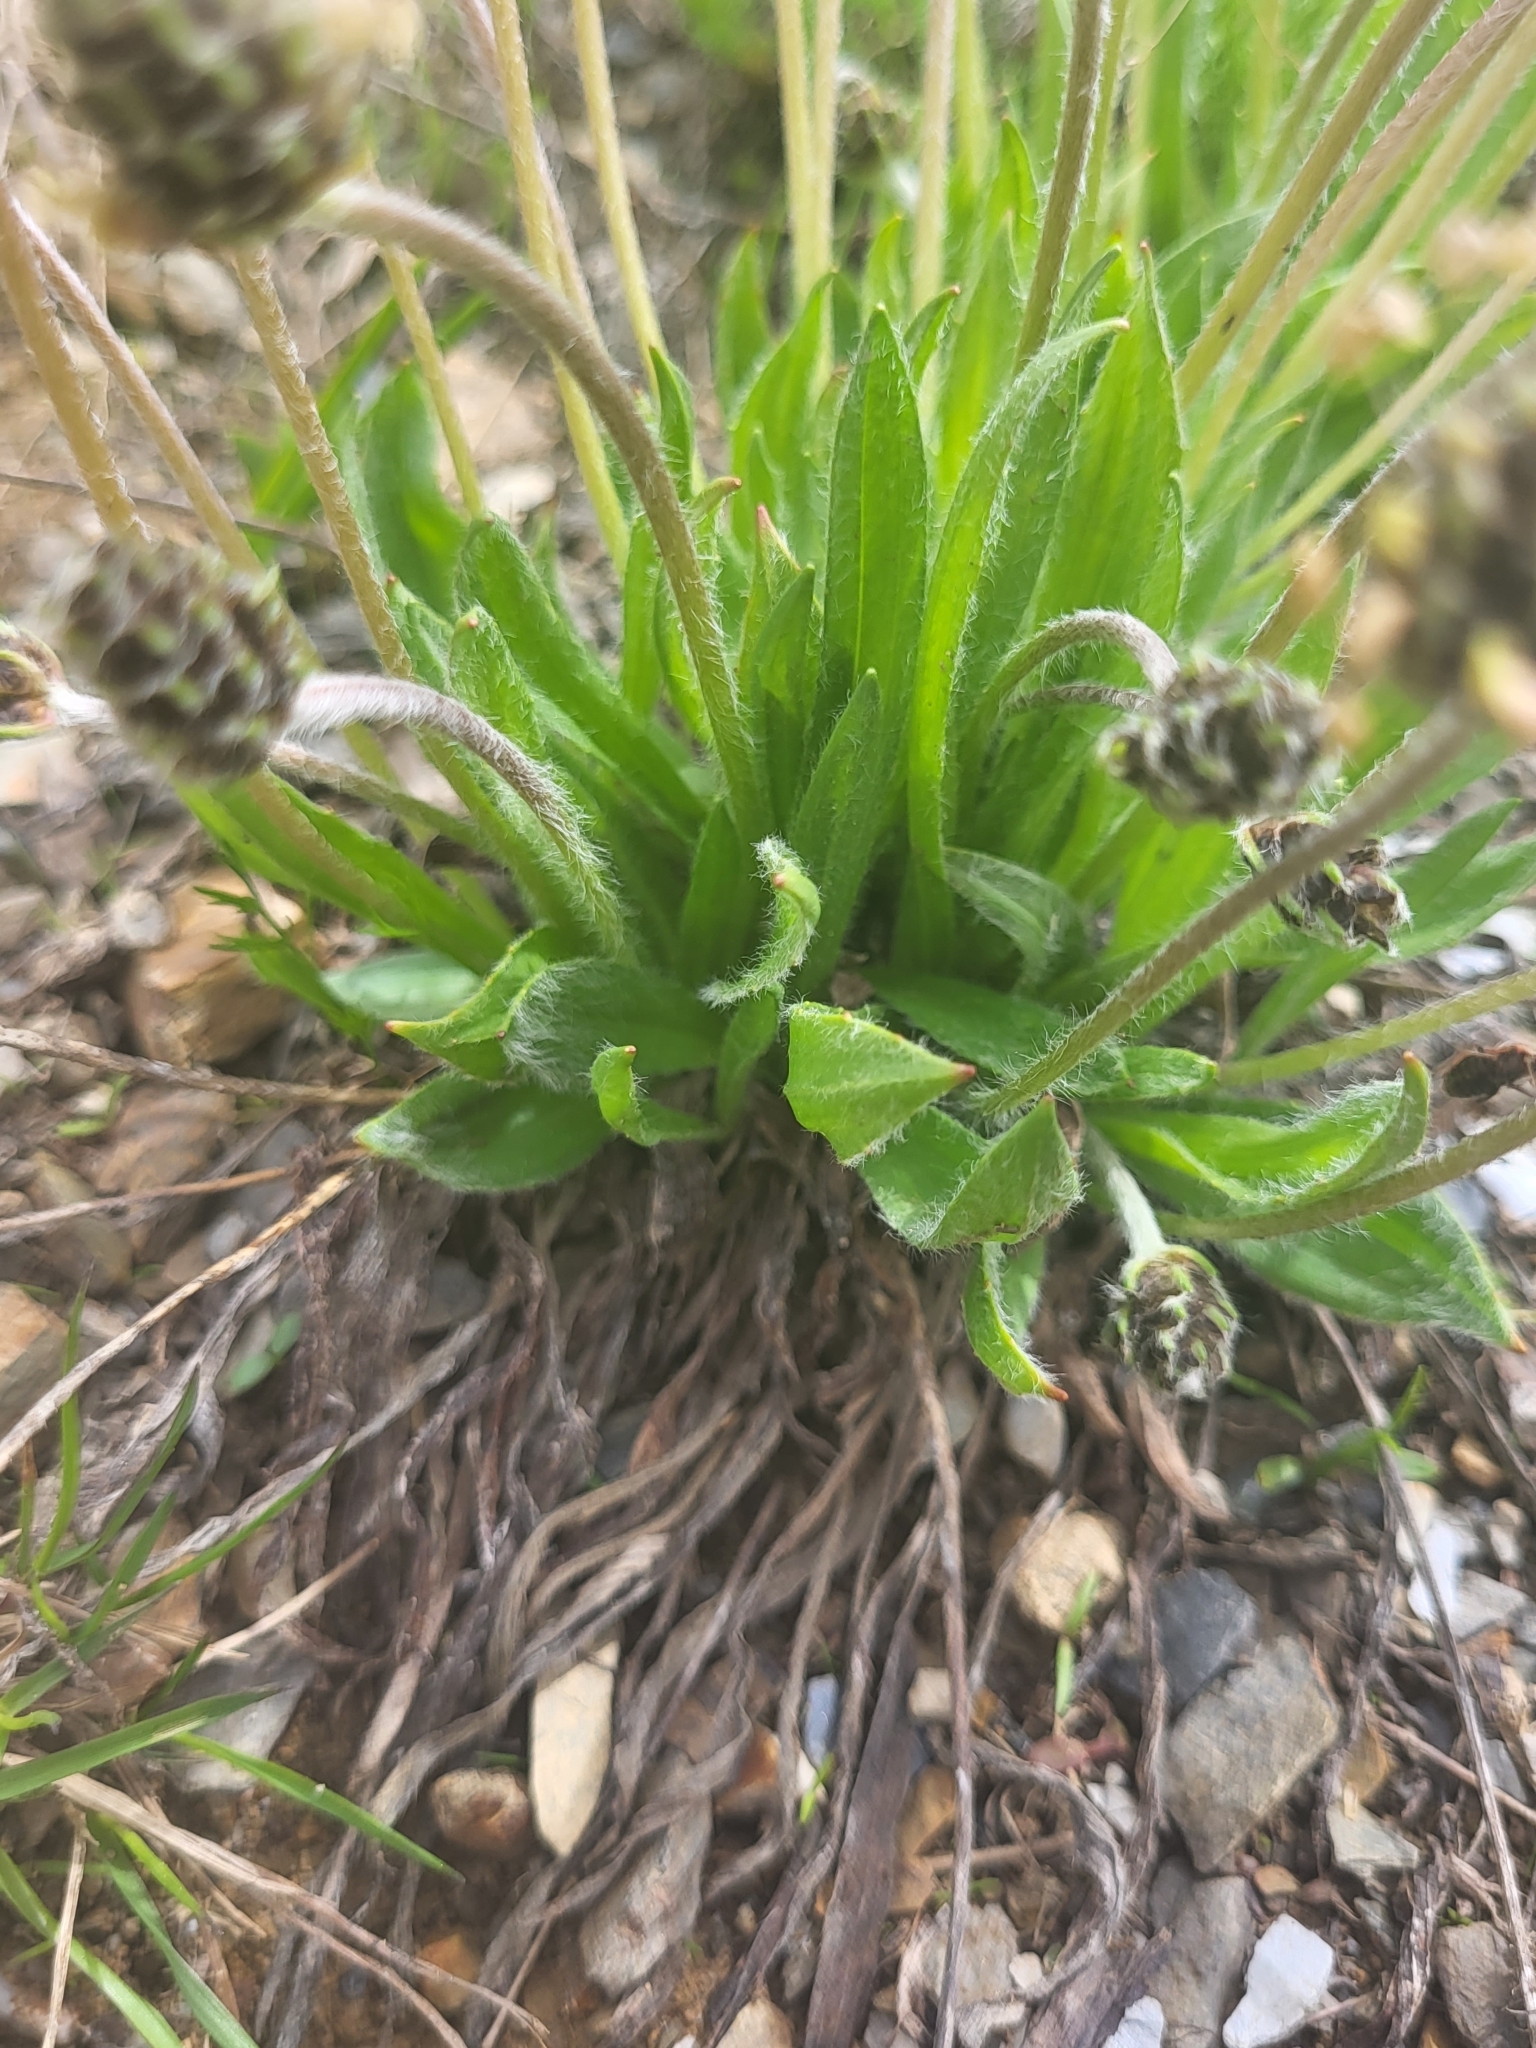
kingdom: Plantae
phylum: Tracheophyta
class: Magnoliopsida
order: Lamiales
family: Plantaginaceae
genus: Plantago
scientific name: Plantago atrata
